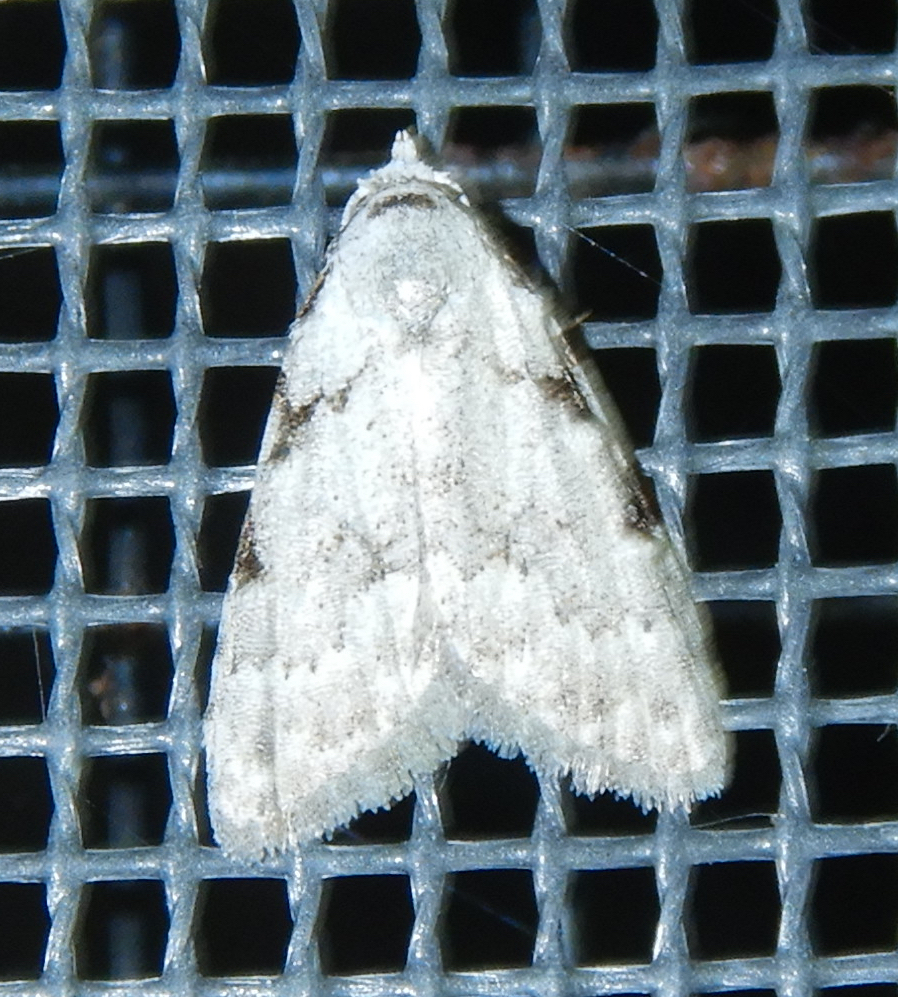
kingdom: Animalia
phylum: Arthropoda
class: Insecta
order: Lepidoptera
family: Nolidae
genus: Nola
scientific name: Nola triquetrana
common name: Three-spotted nola moth
